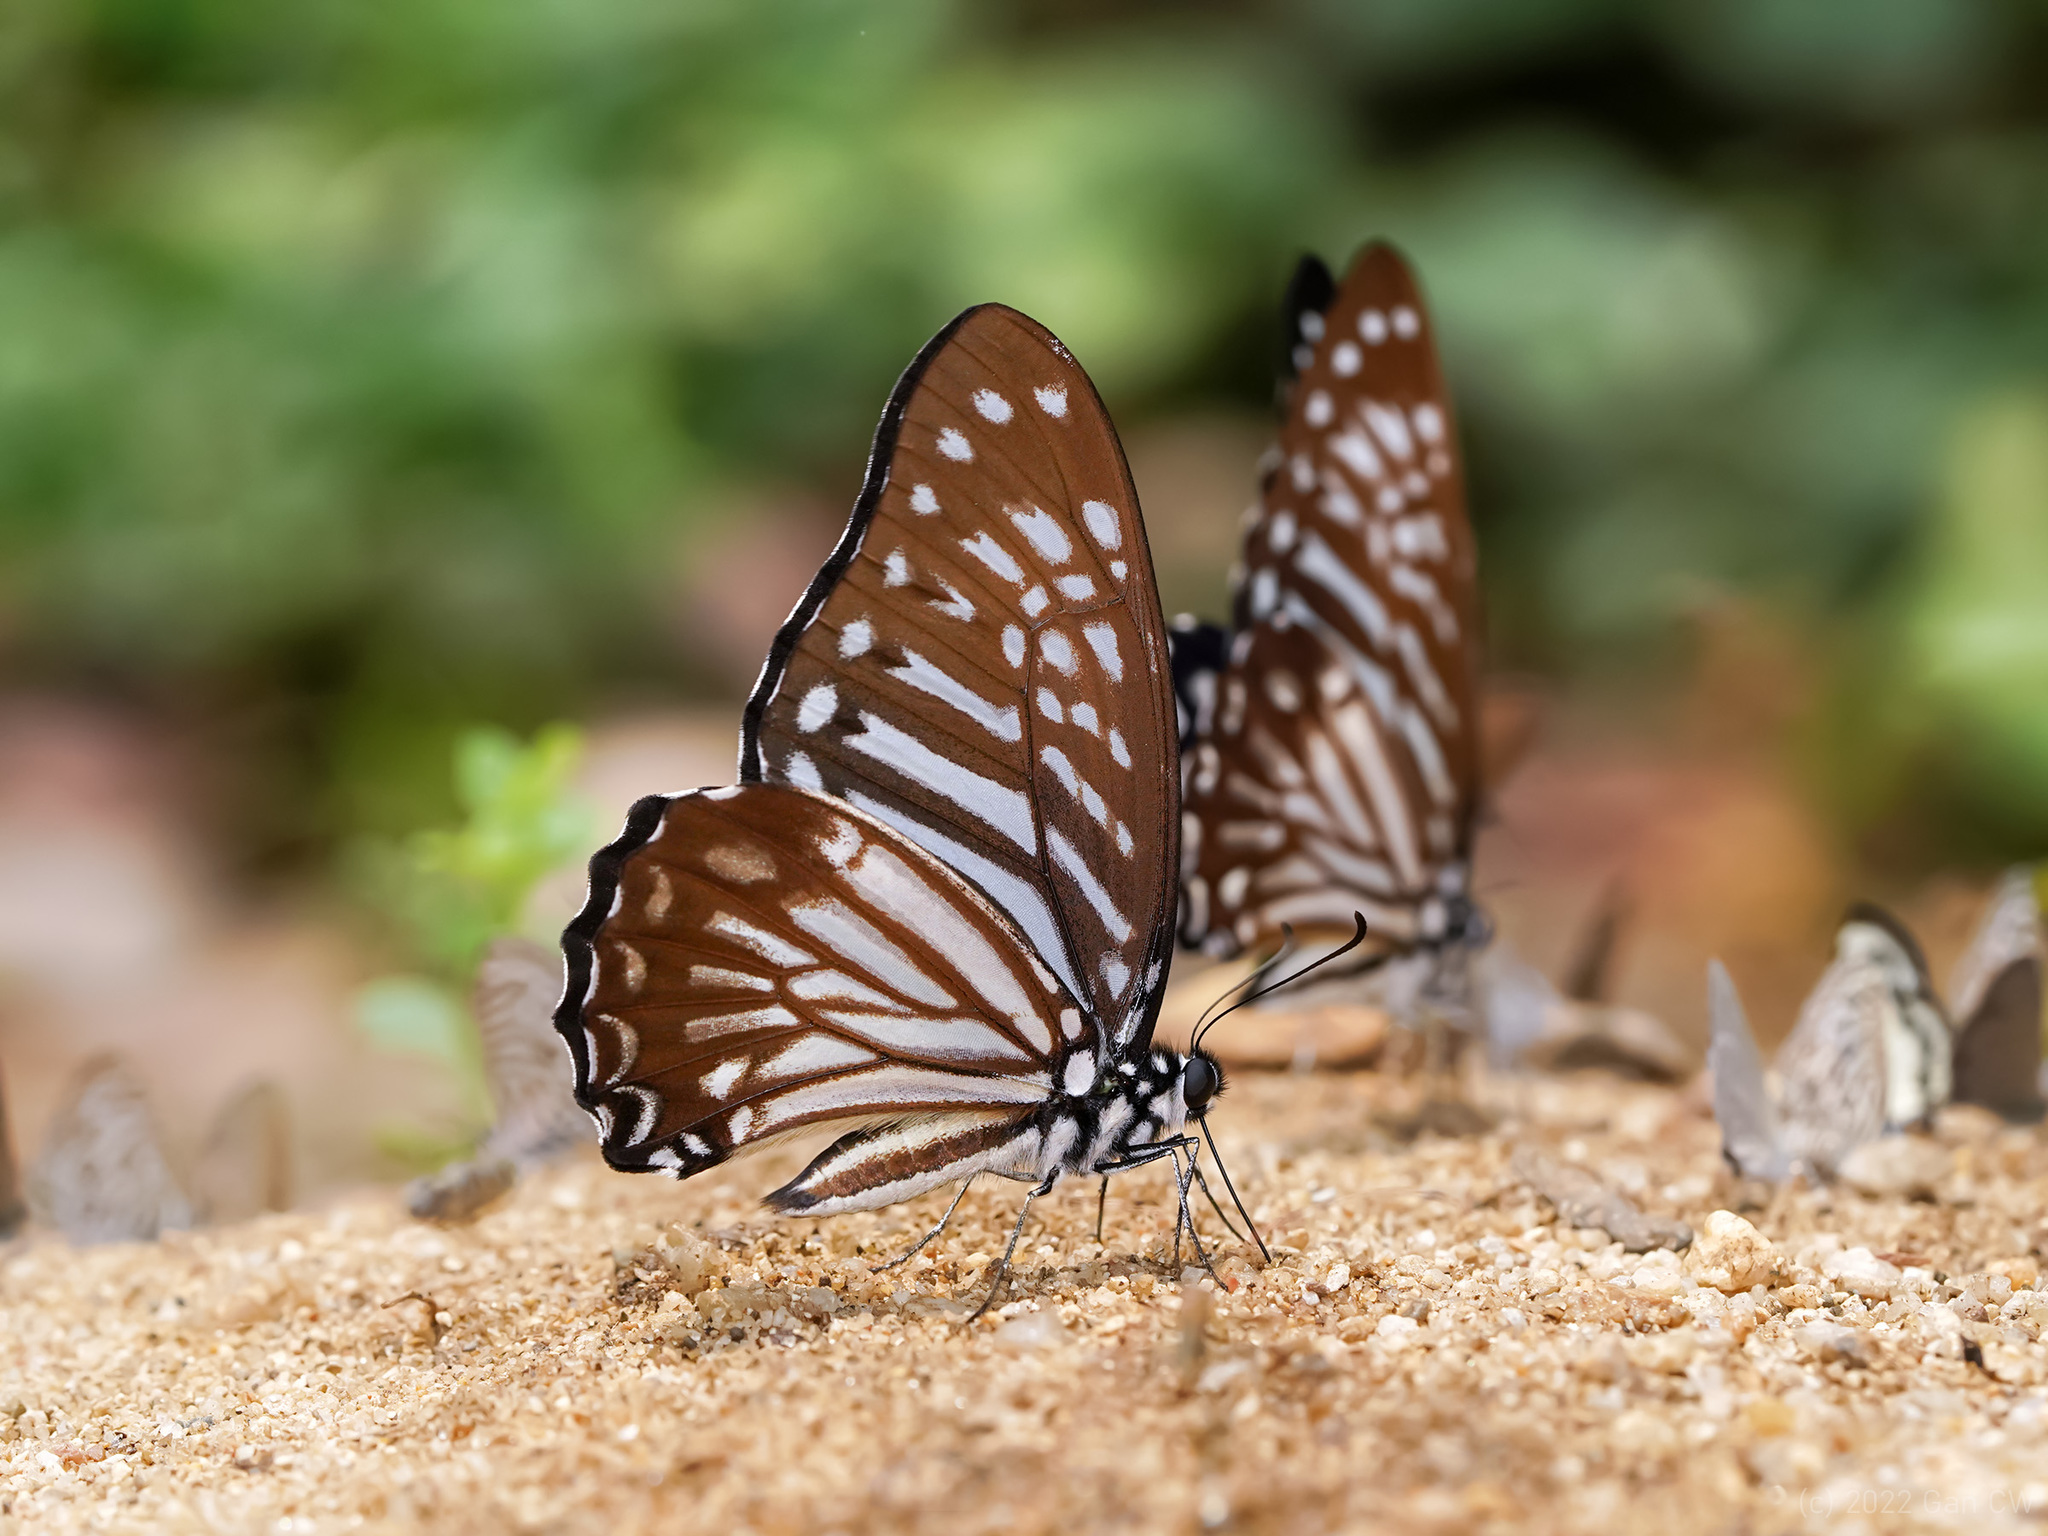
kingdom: Animalia
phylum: Arthropoda
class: Insecta
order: Lepidoptera
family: Papilionidae
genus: Graphium
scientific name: Graphium macareus
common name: Lesser zebra
